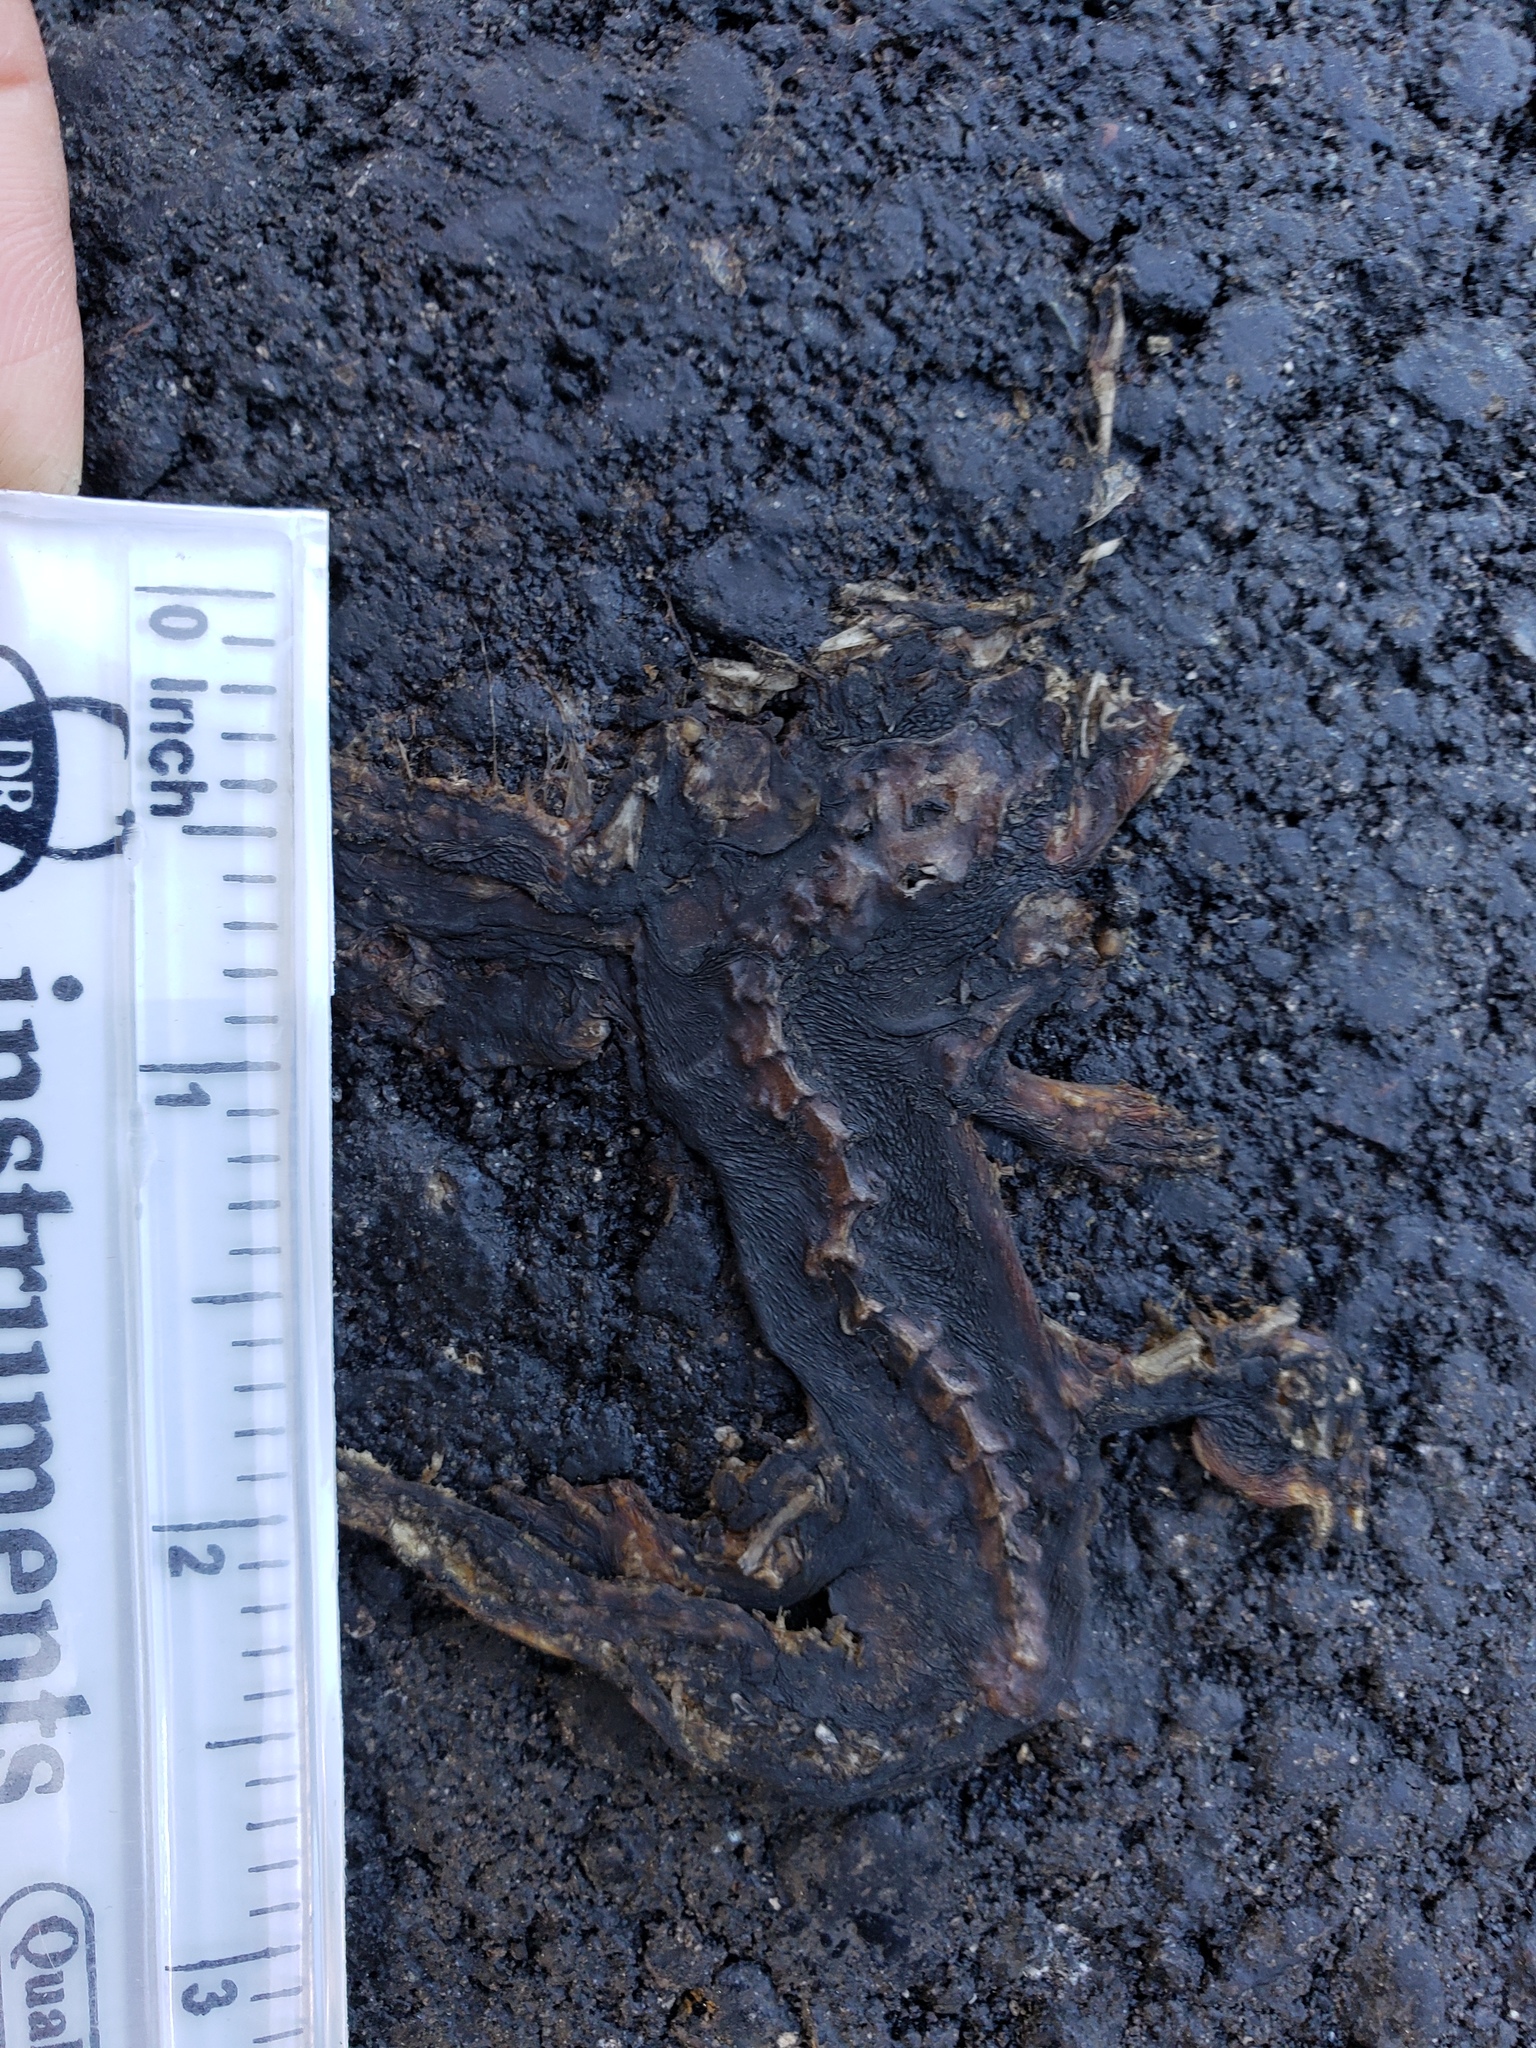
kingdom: Animalia
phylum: Chordata
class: Amphibia
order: Caudata
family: Salamandridae
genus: Taricha
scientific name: Taricha
